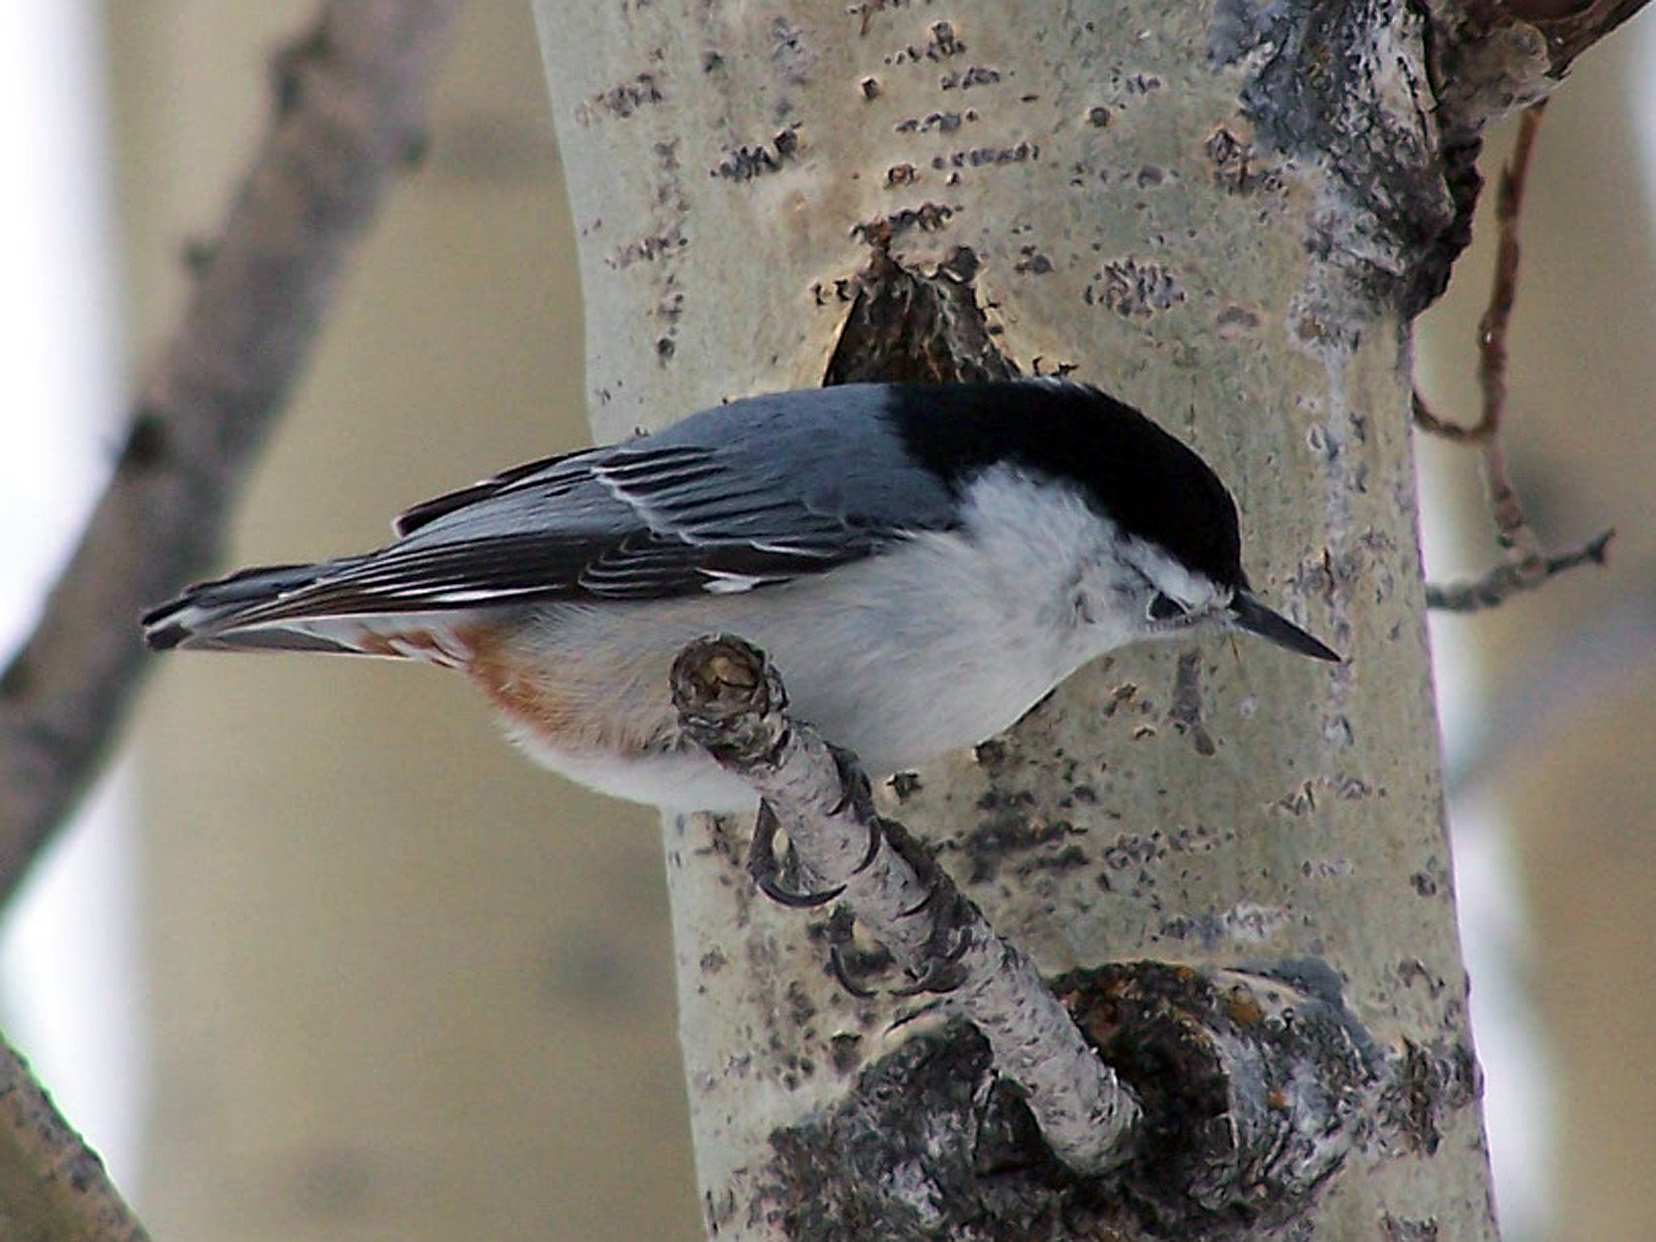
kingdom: Animalia
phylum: Chordata
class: Aves
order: Passeriformes
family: Sittidae
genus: Sitta
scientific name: Sitta carolinensis
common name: White-breasted nuthatch
